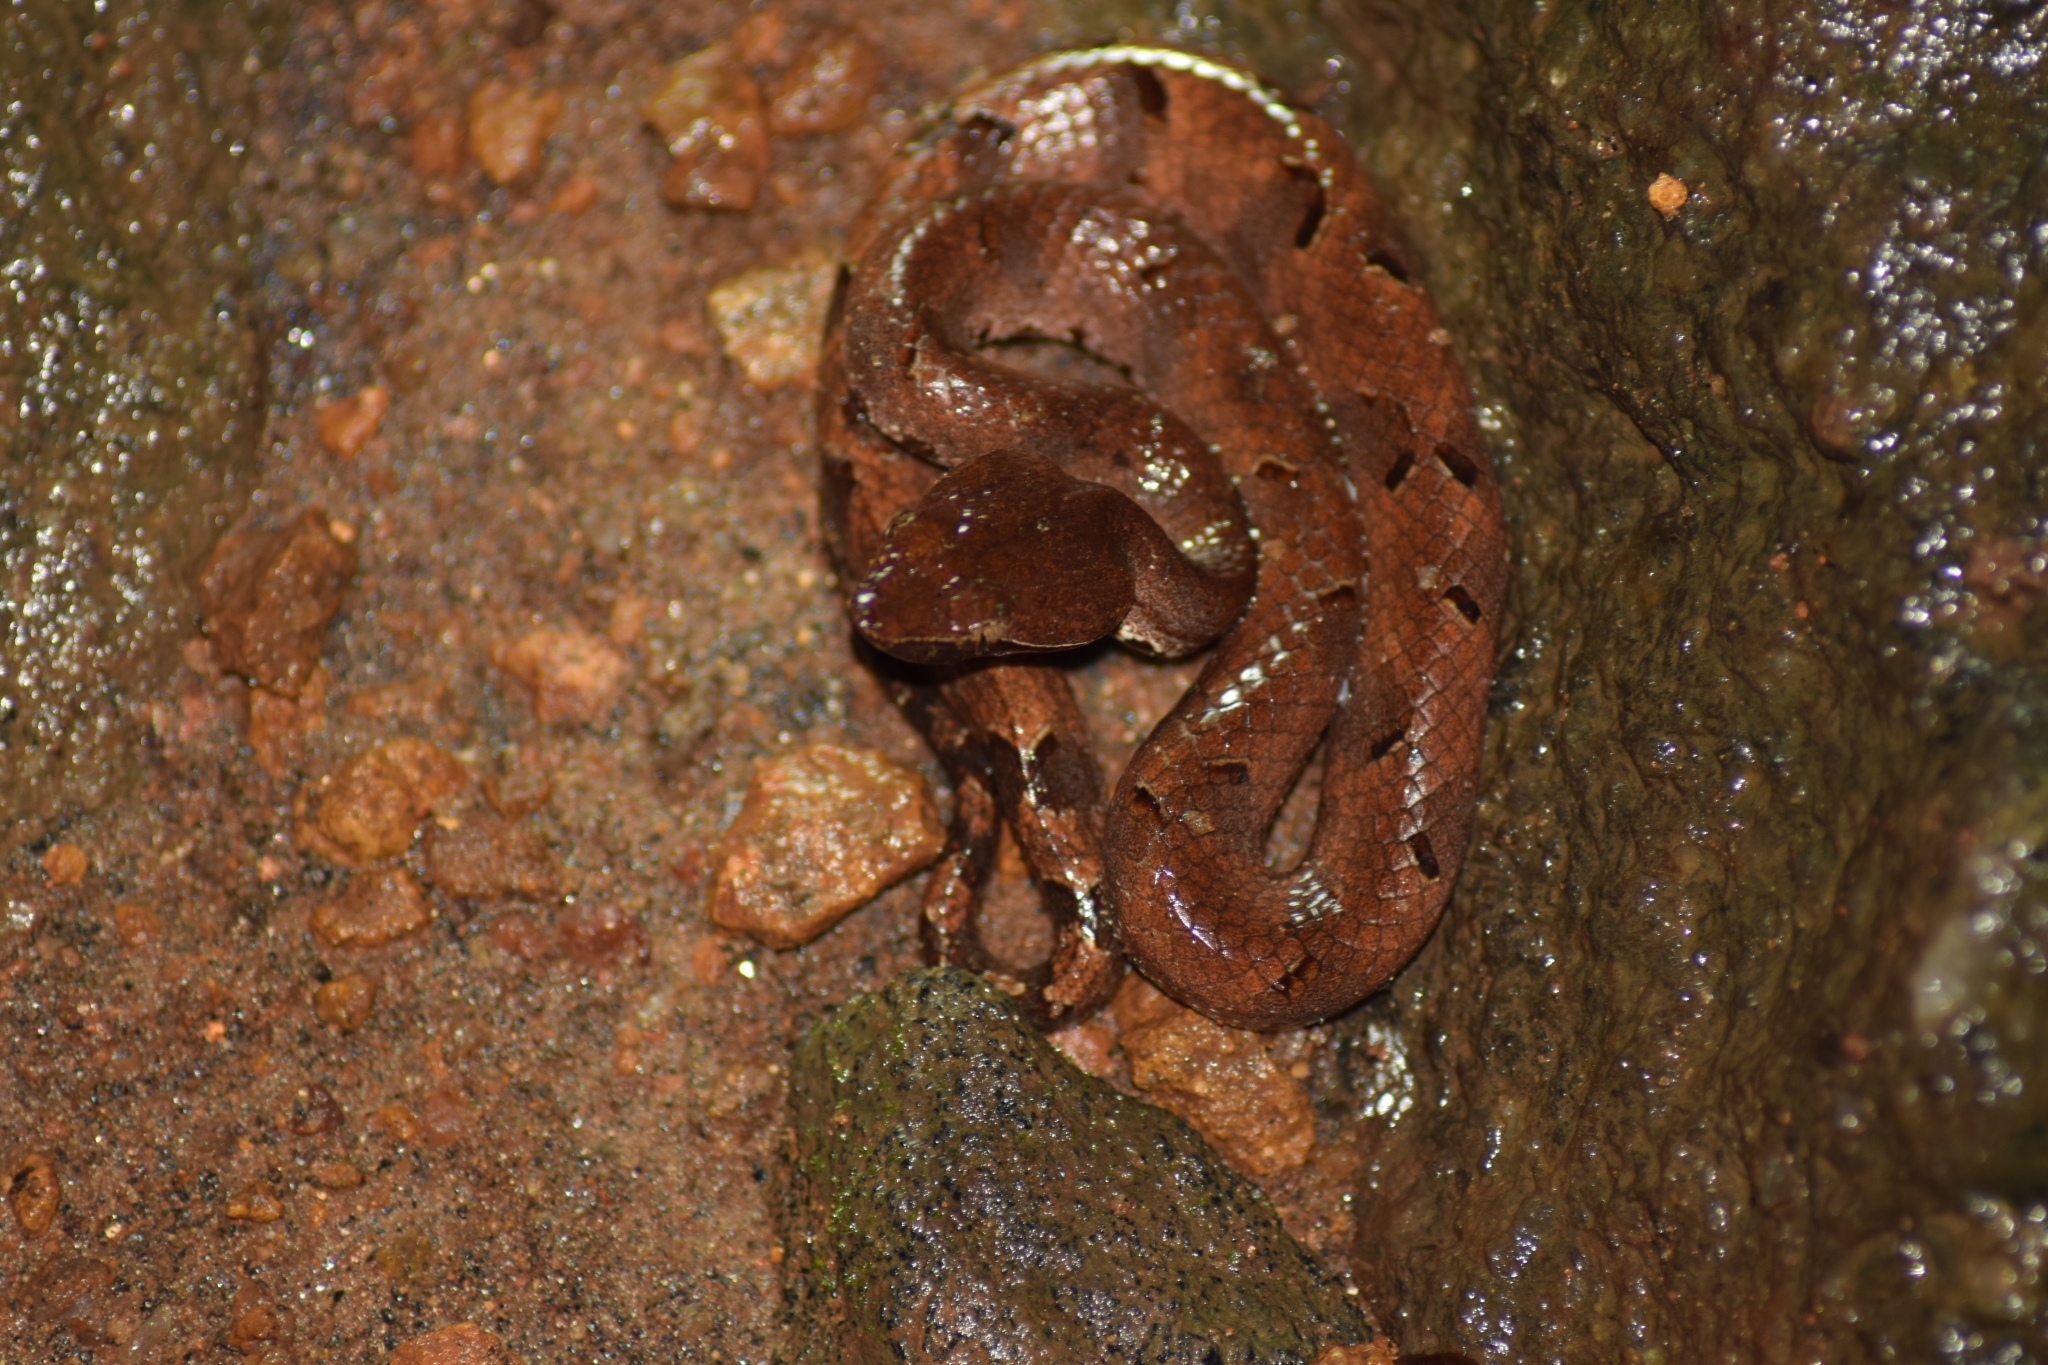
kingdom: Animalia
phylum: Chordata
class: Squamata
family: Viperidae
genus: Hypnale
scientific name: Hypnale hypnale
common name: Hump-nosed moccasin
